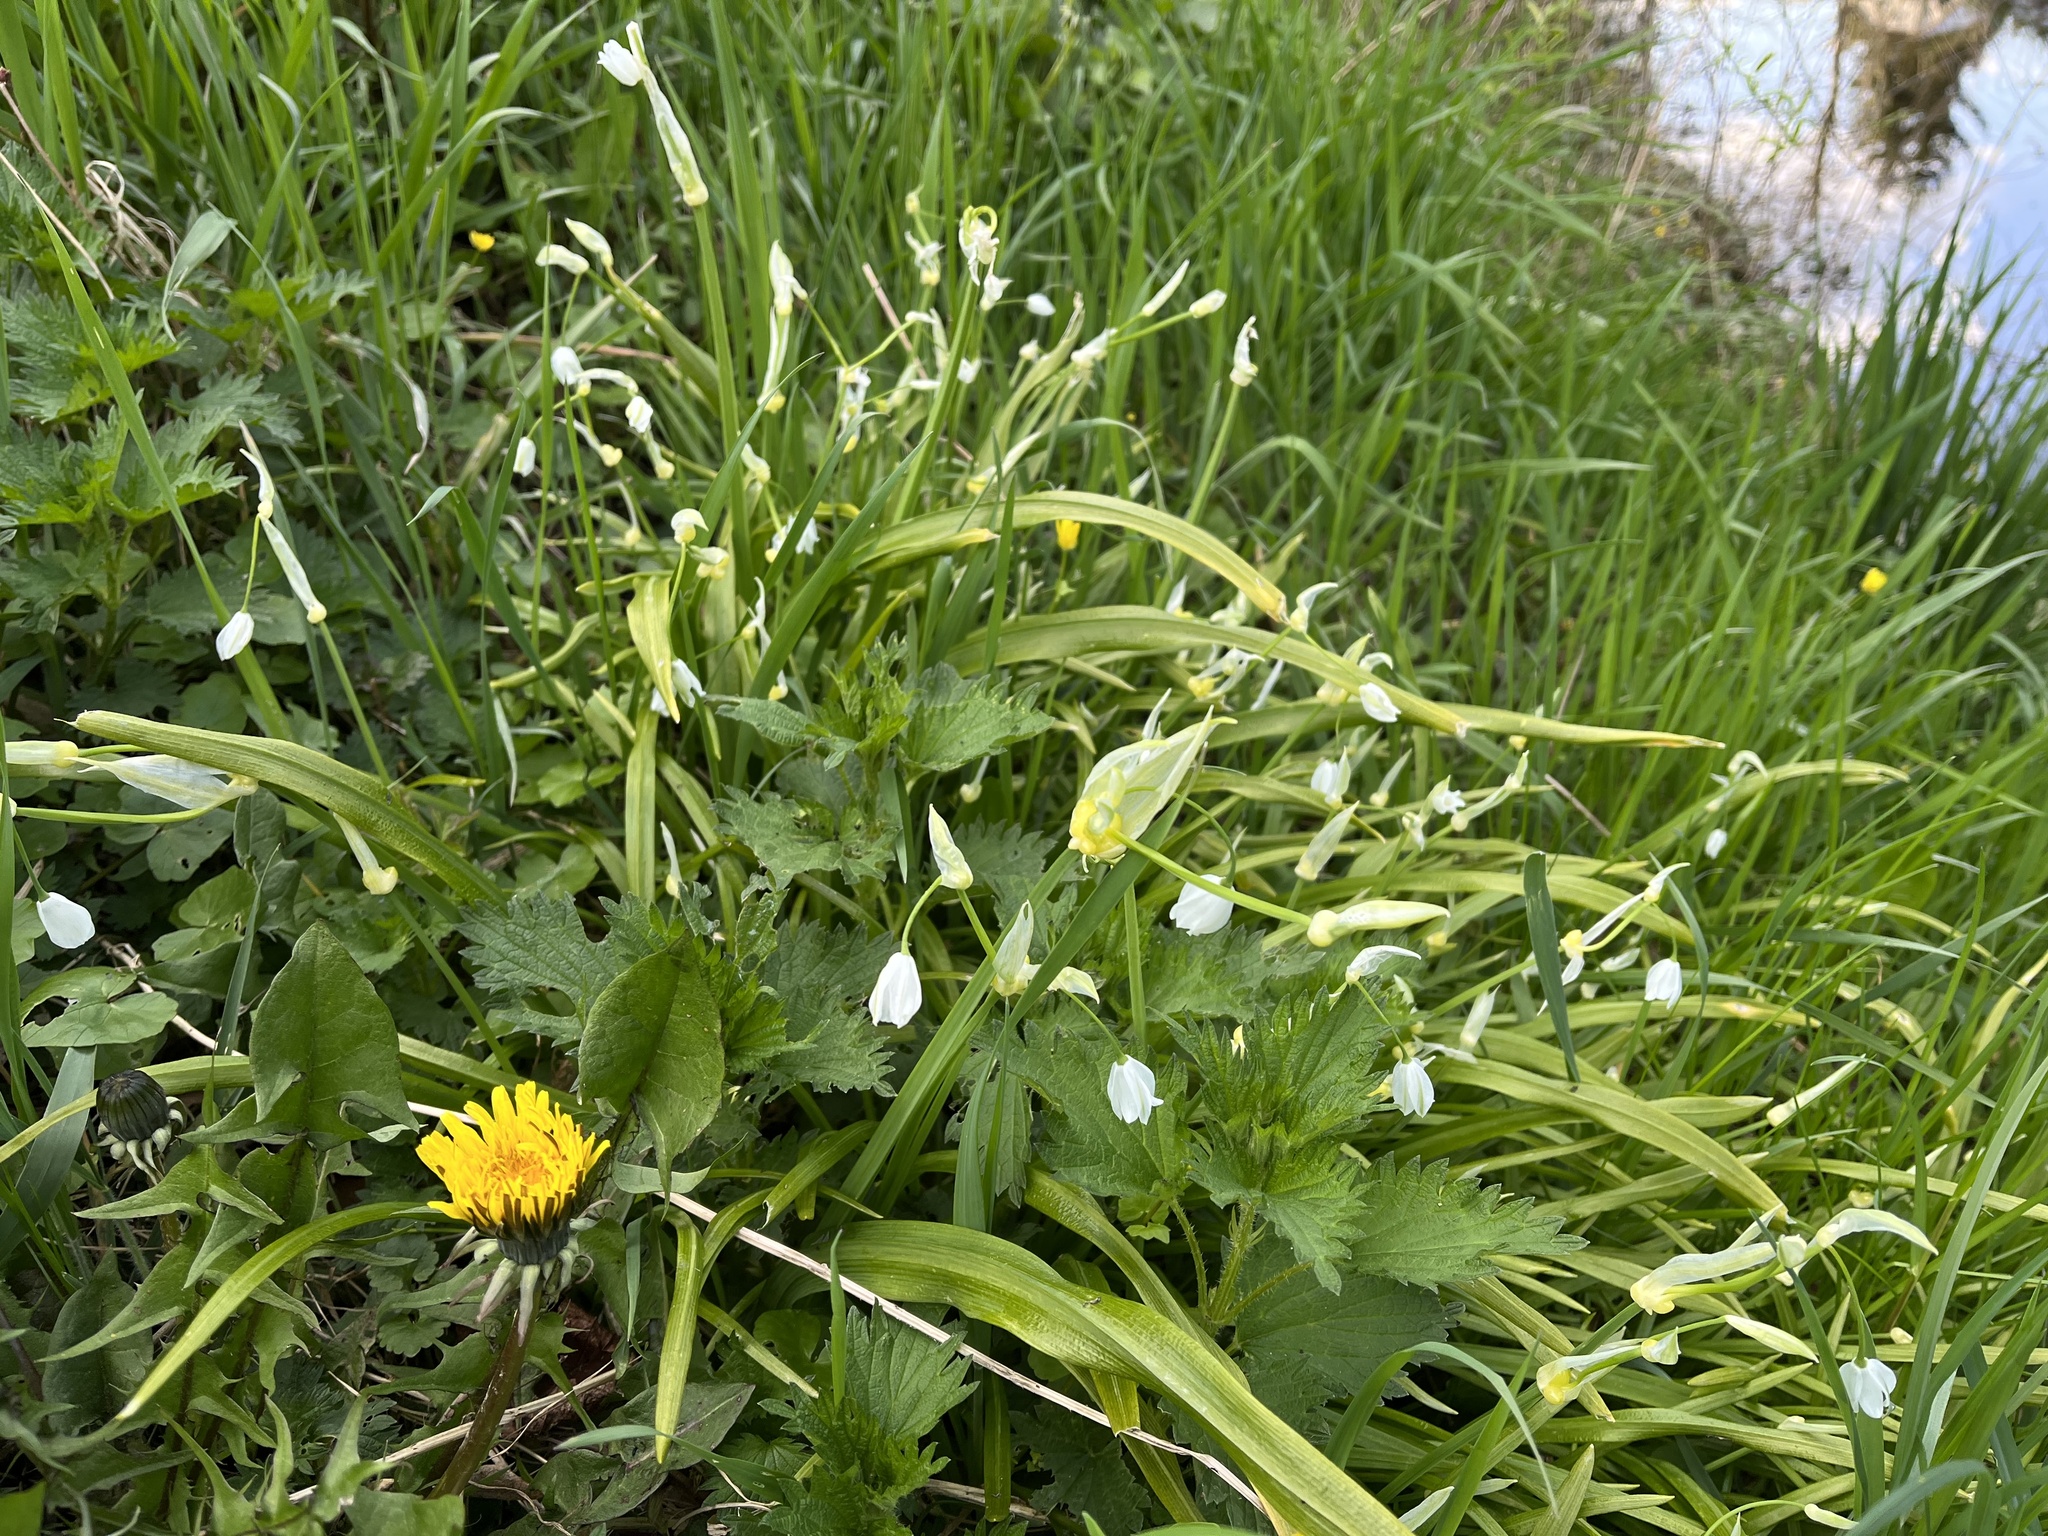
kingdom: Plantae
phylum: Tracheophyta
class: Liliopsida
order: Asparagales
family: Amaryllidaceae
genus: Allium
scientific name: Allium paradoxum
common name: Few-flowered garlic
